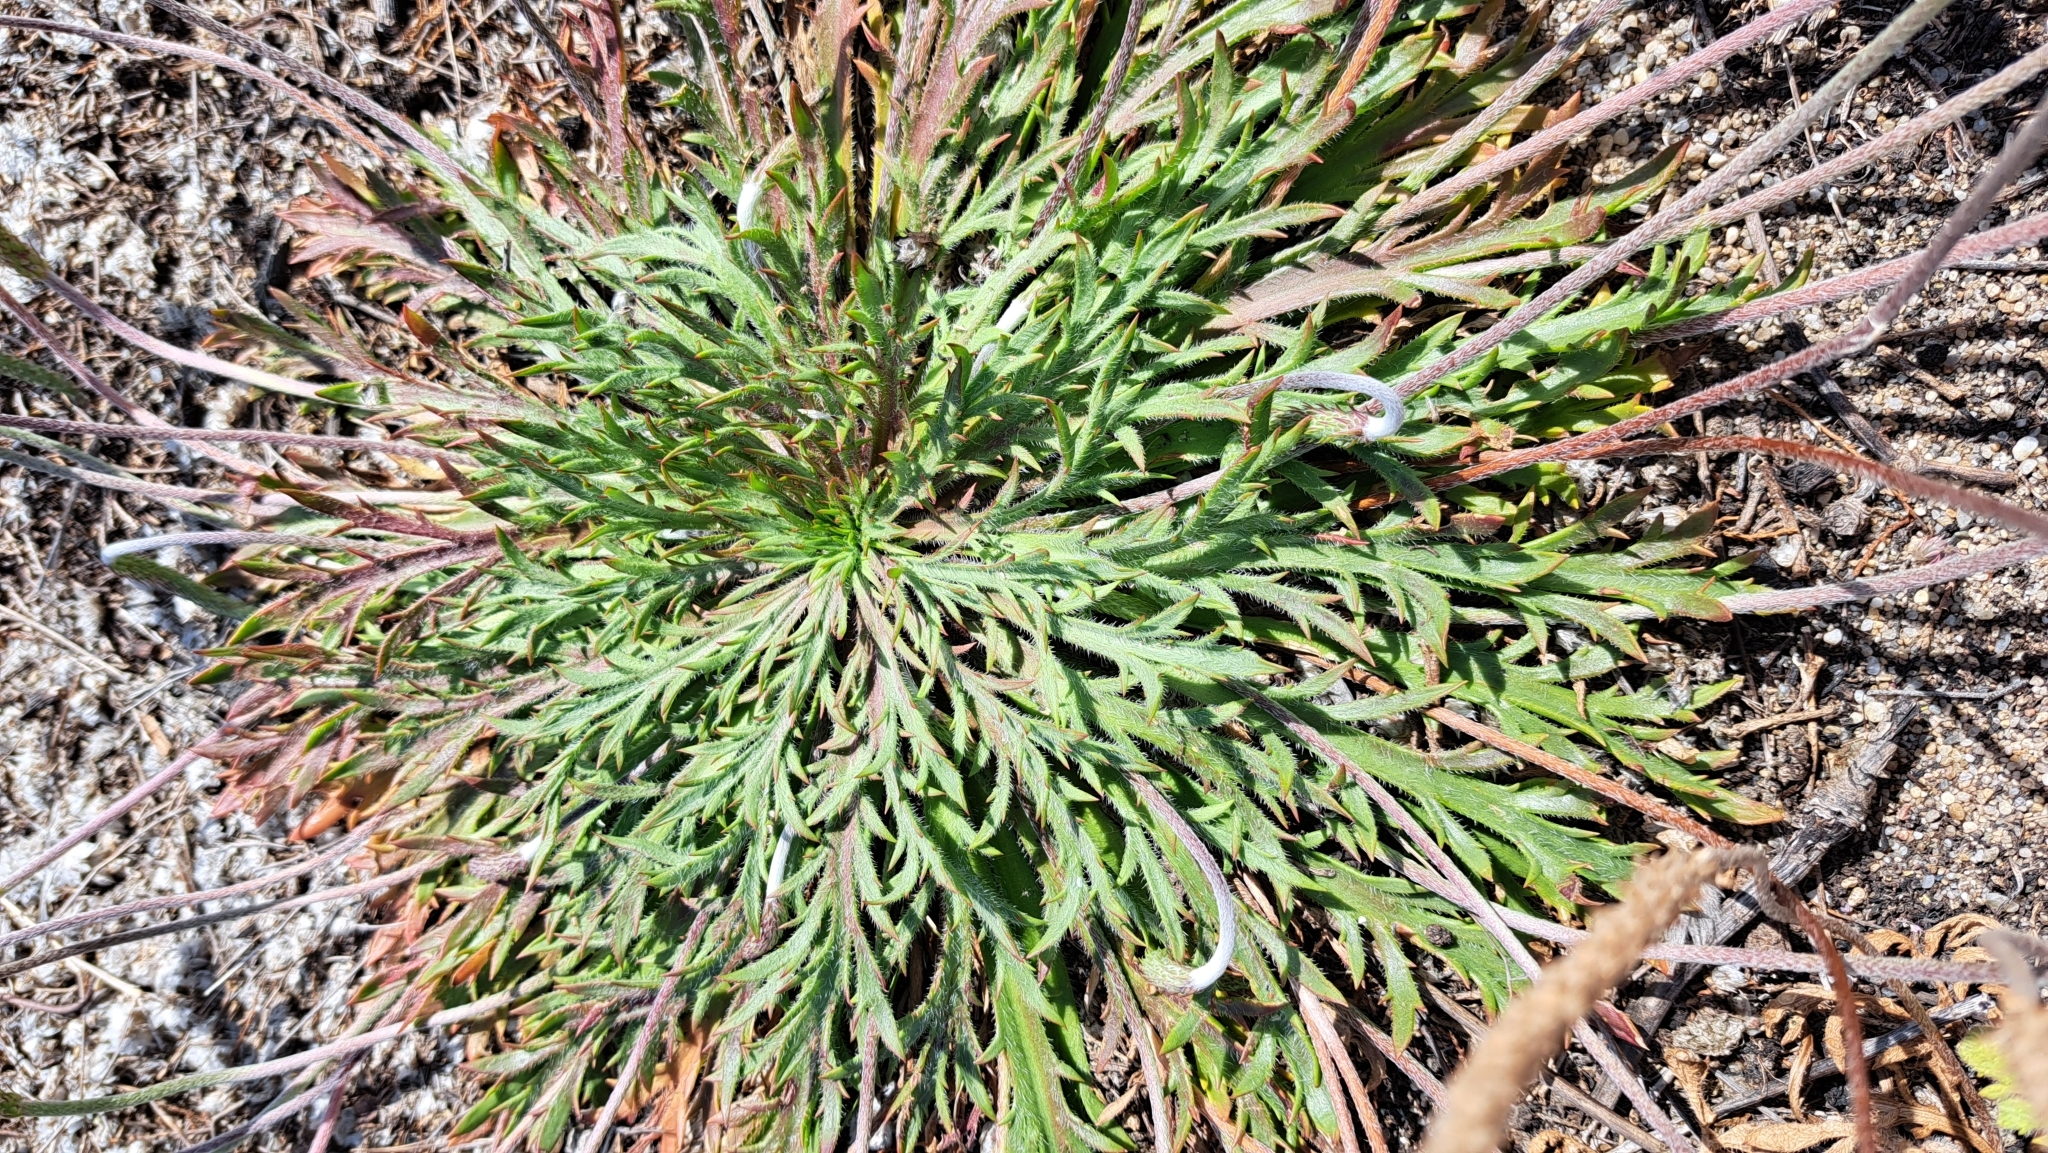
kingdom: Plantae
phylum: Tracheophyta
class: Magnoliopsida
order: Lamiales
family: Plantaginaceae
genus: Plantago
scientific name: Plantago coronopus
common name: Buck's-horn plantain
